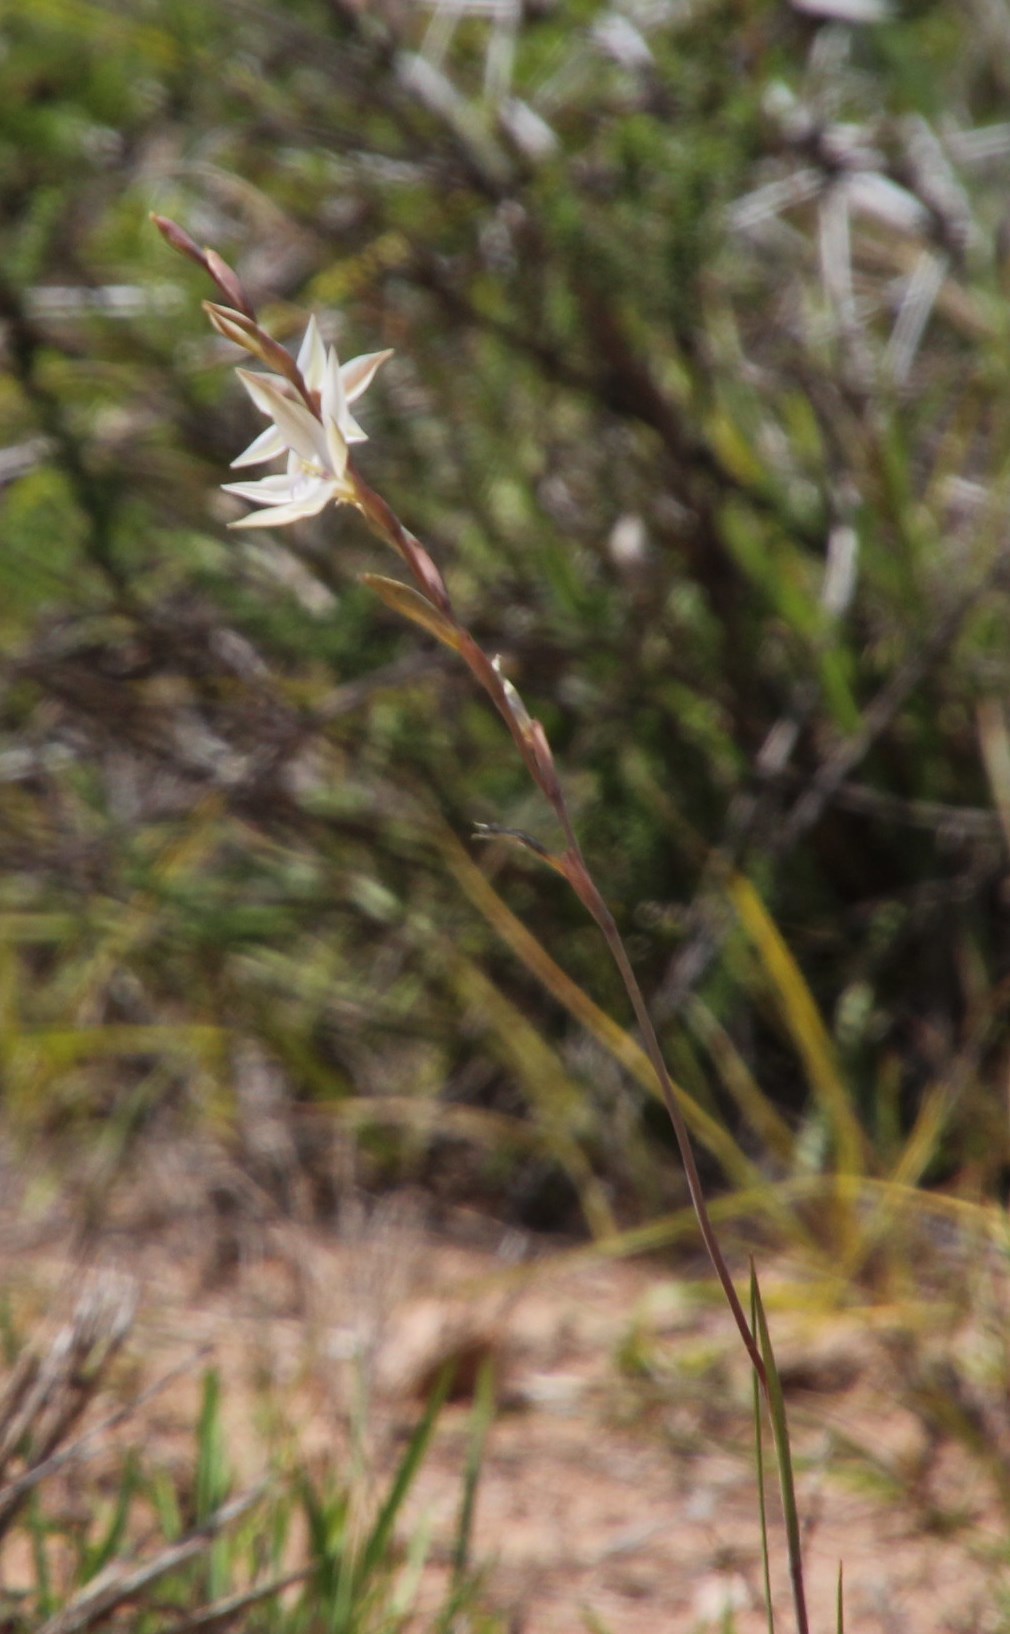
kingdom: Plantae
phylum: Tracheophyta
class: Liliopsida
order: Asparagales
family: Iridaceae
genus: Gladiolus
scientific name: Gladiolus stellatus
